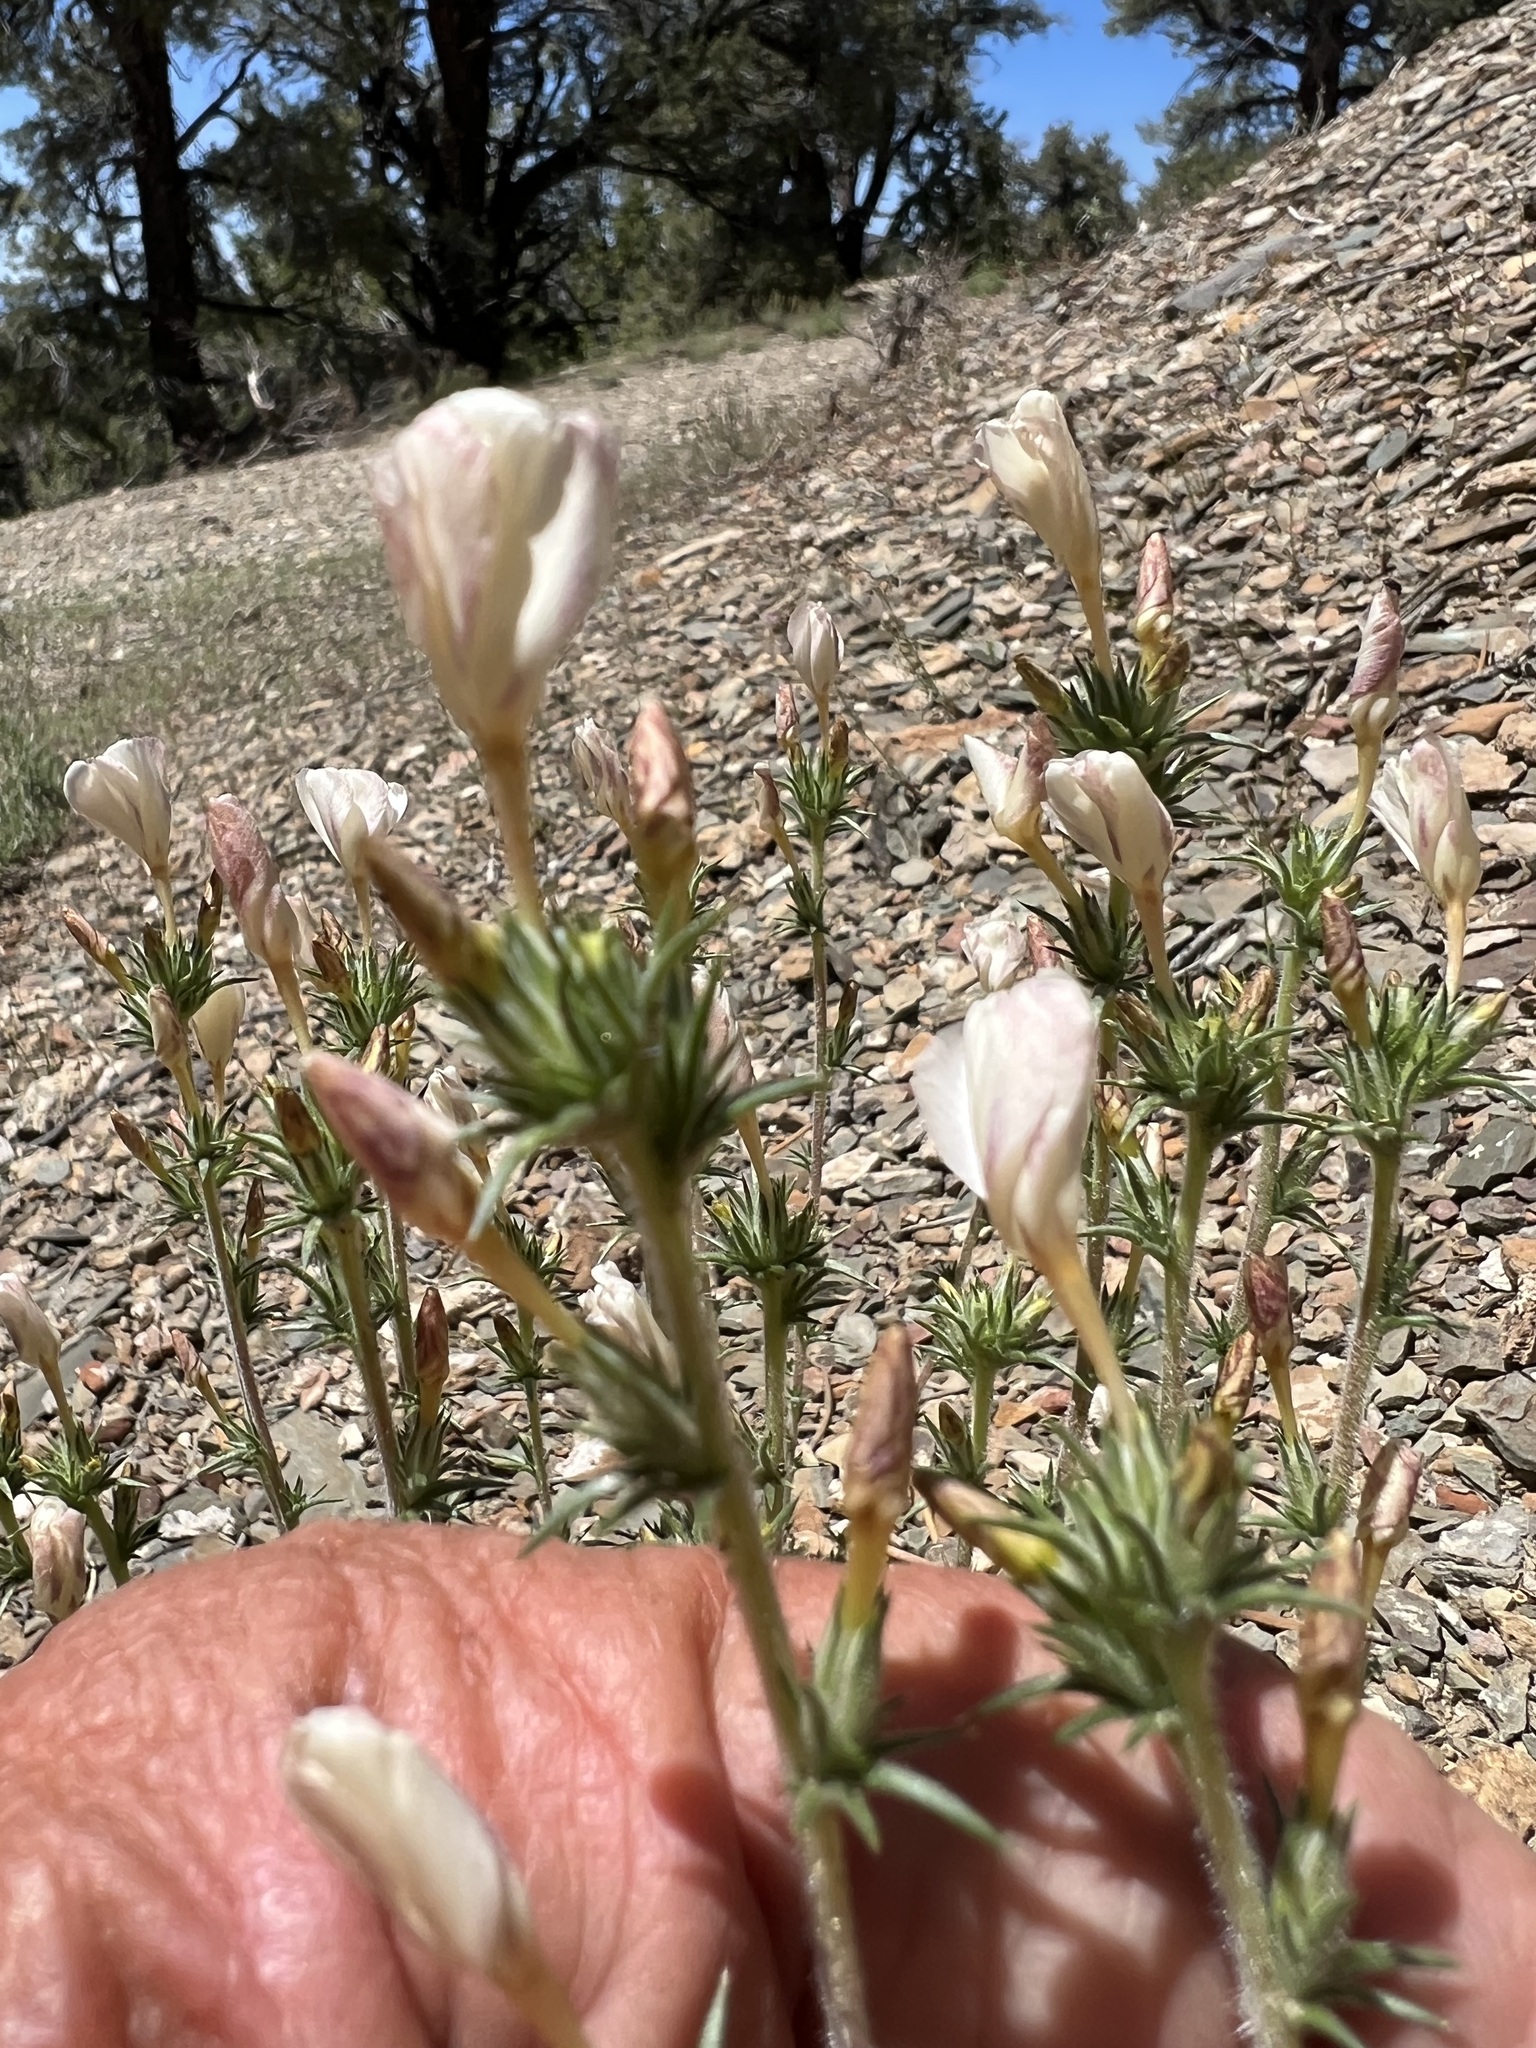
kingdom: Plantae
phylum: Tracheophyta
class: Magnoliopsida
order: Ericales
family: Polemoniaceae
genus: Linanthus
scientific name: Linanthus pungens
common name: Granite prickly phlox
